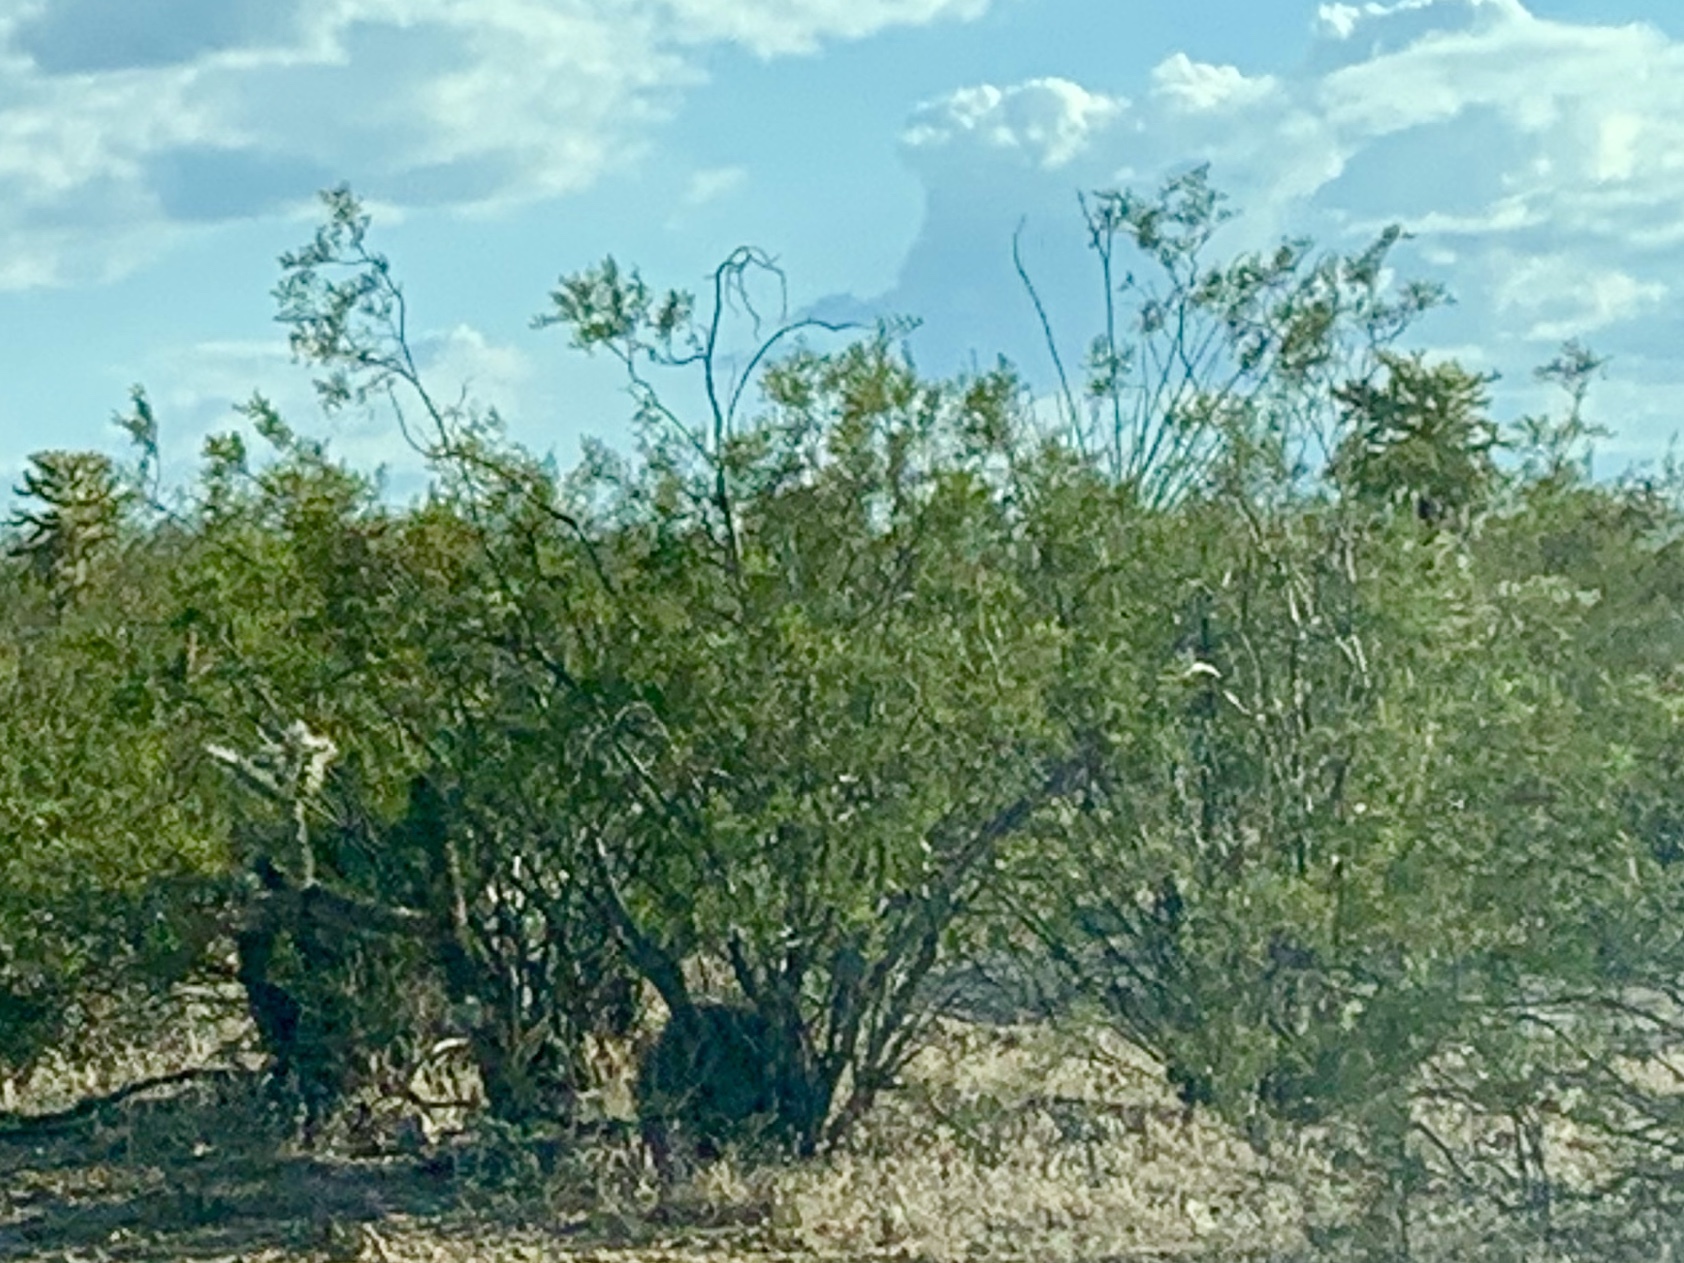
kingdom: Plantae
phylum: Tracheophyta
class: Magnoliopsida
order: Zygophyllales
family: Zygophyllaceae
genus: Larrea
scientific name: Larrea tridentata
